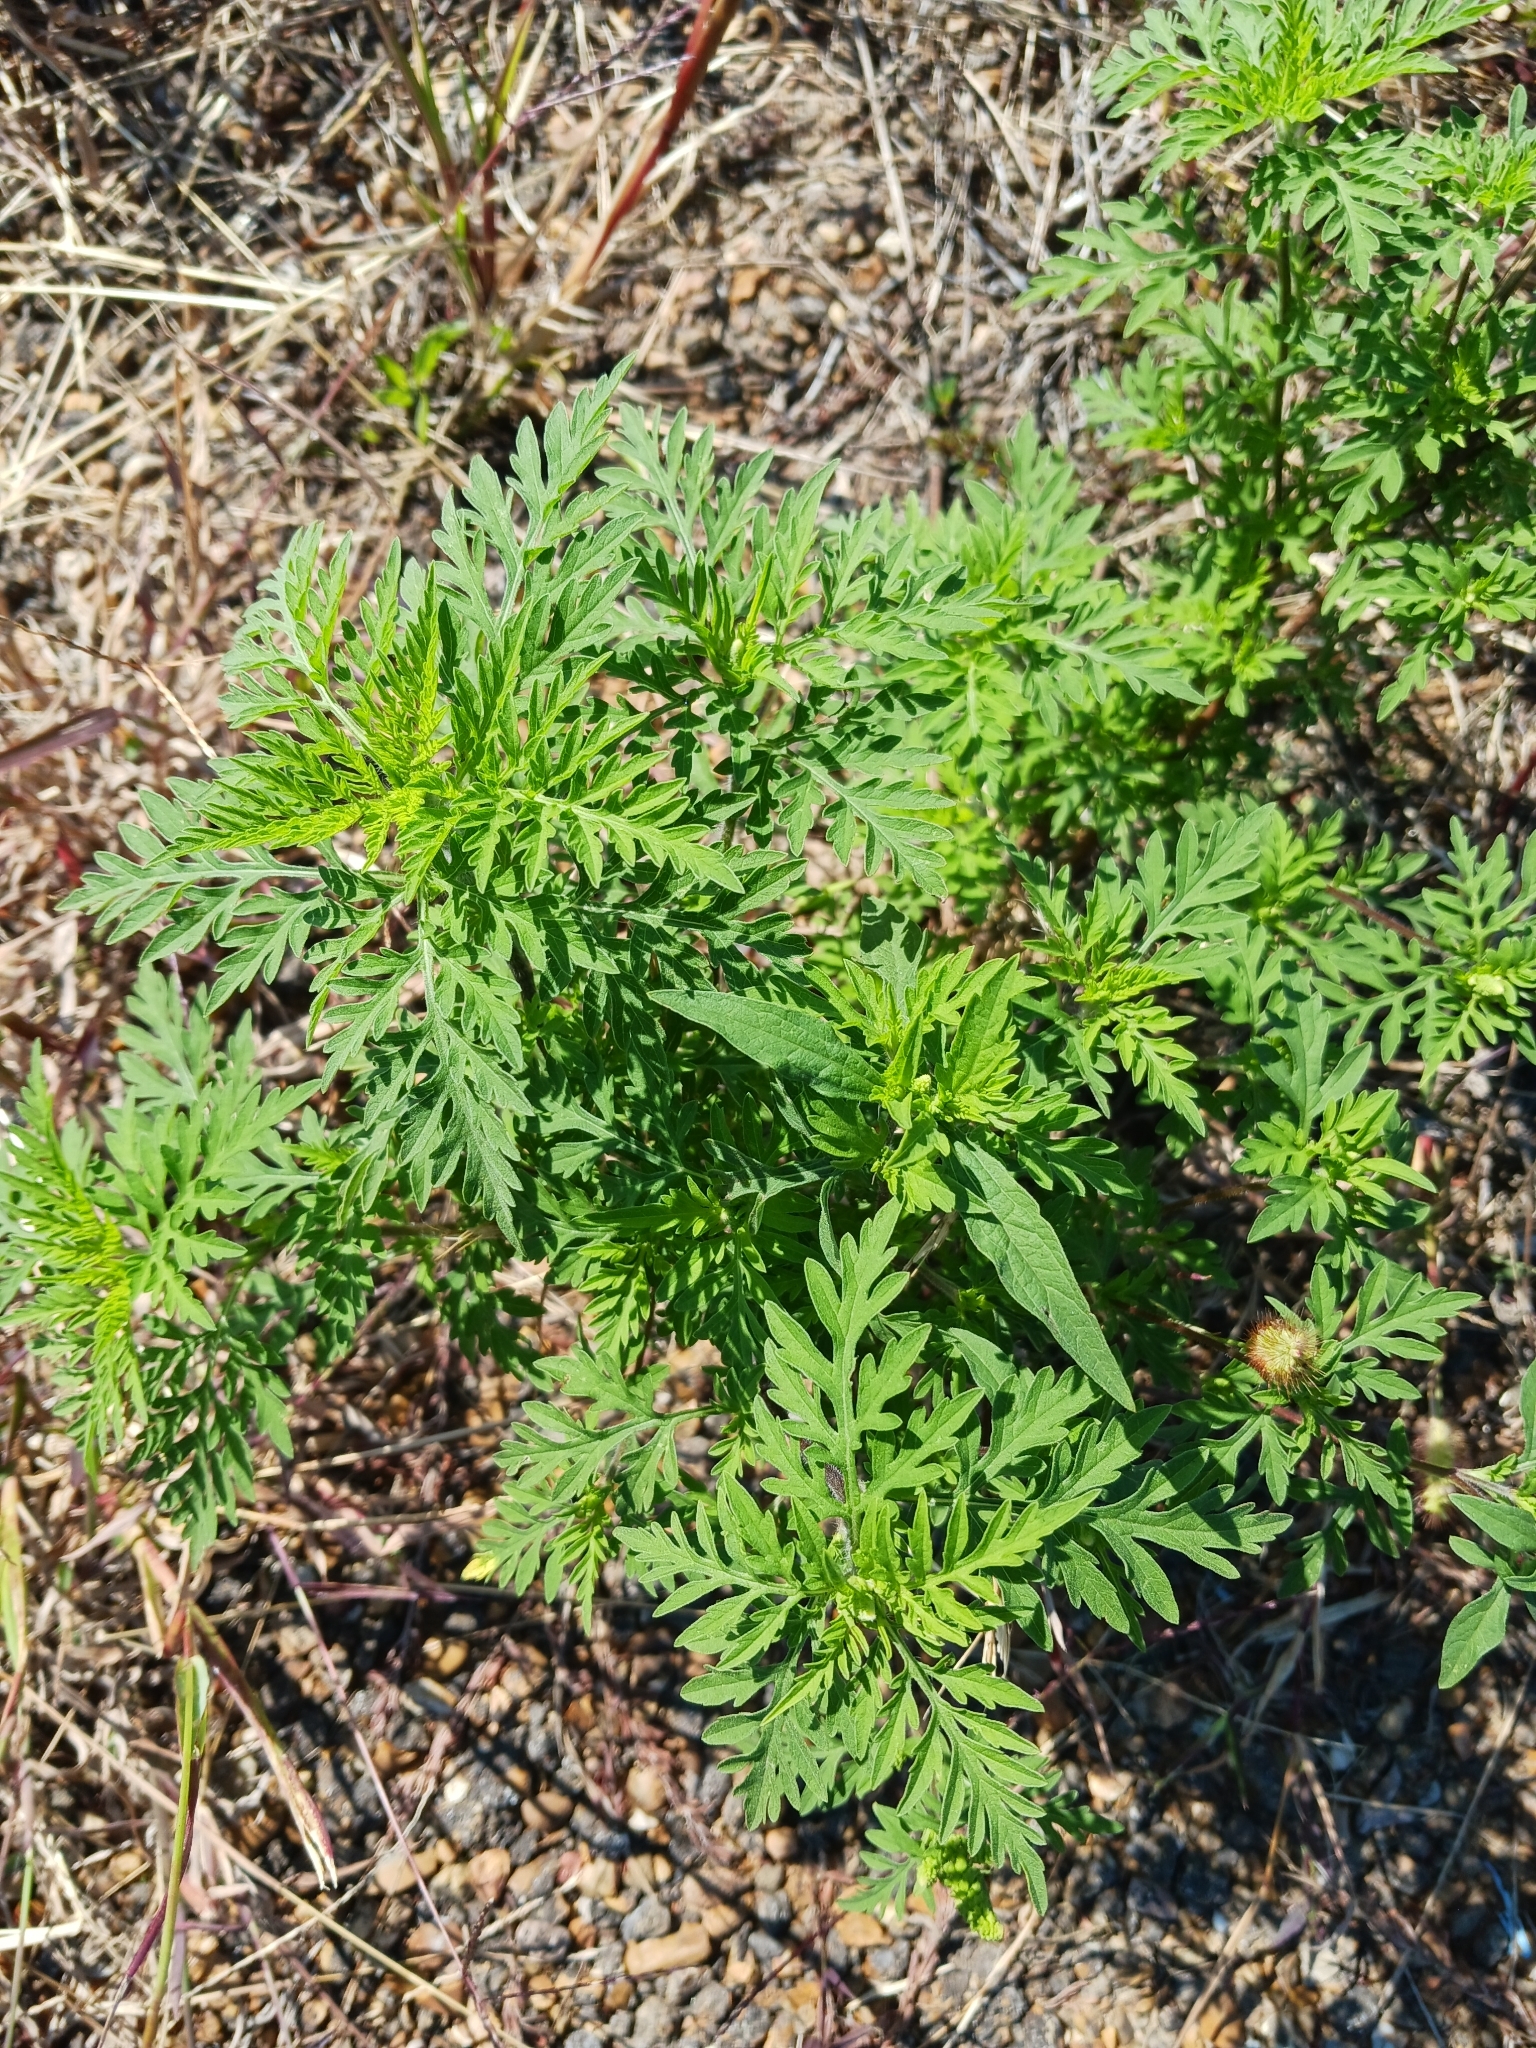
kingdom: Plantae
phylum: Tracheophyta
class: Magnoliopsida
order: Asterales
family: Asteraceae
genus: Ambrosia
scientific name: Ambrosia artemisiifolia
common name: Annual ragweed
